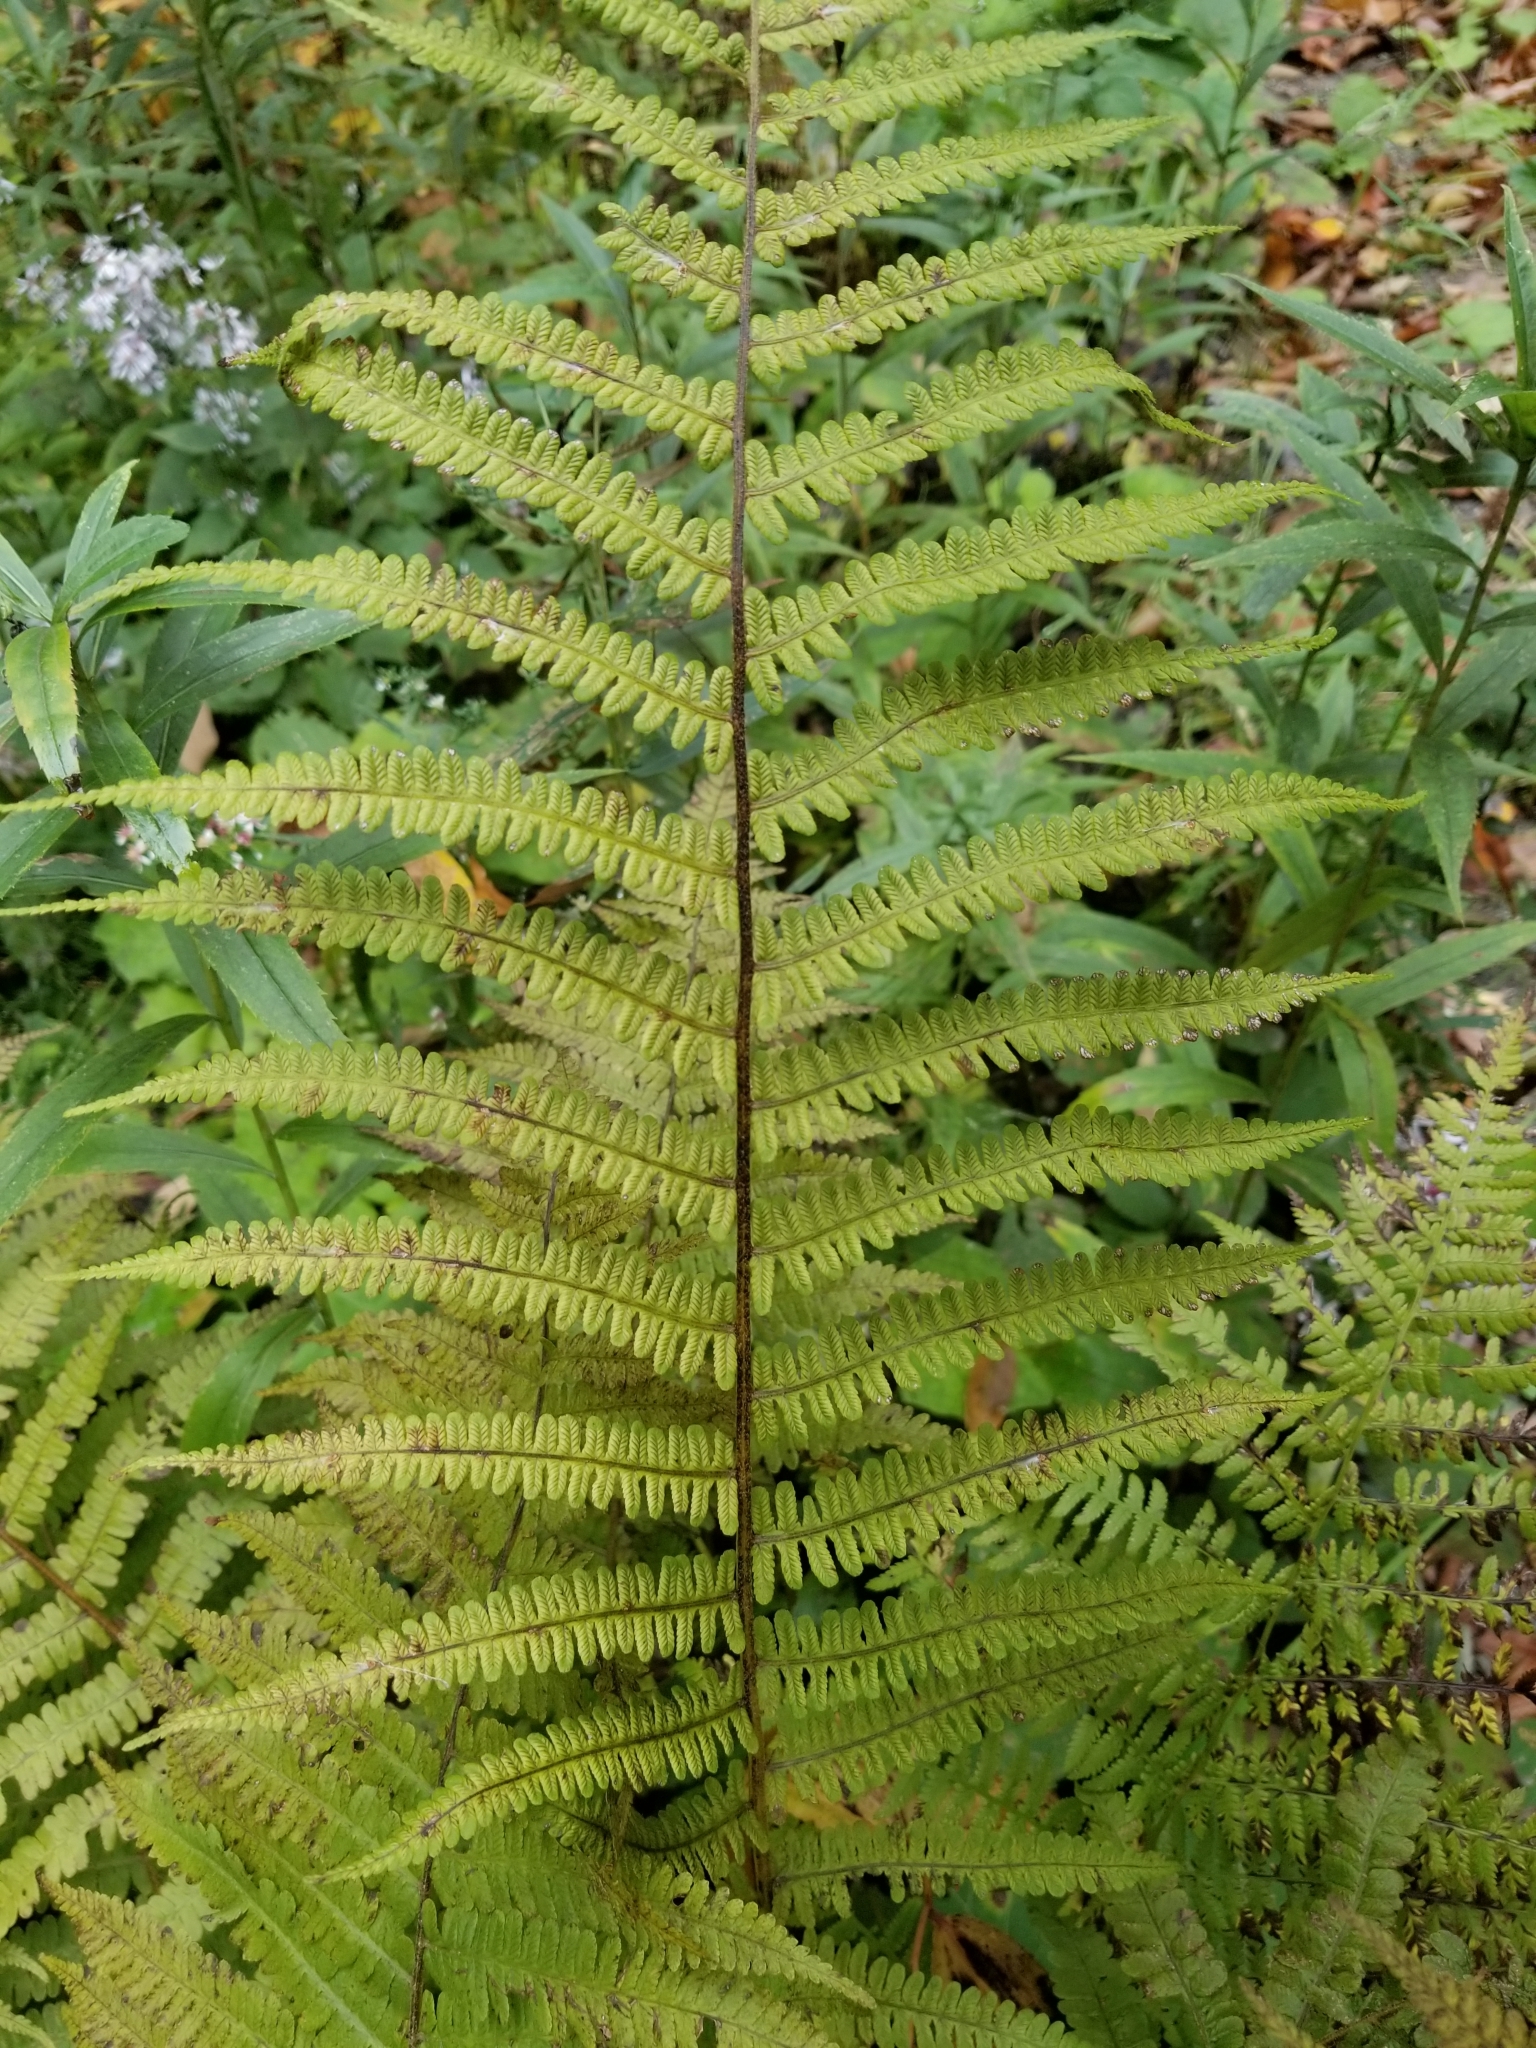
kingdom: Plantae
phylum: Tracheophyta
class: Polypodiopsida
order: Polypodiales
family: Athyriaceae
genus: Deparia
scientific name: Deparia acrostichoides
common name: Silver false spleenwort
